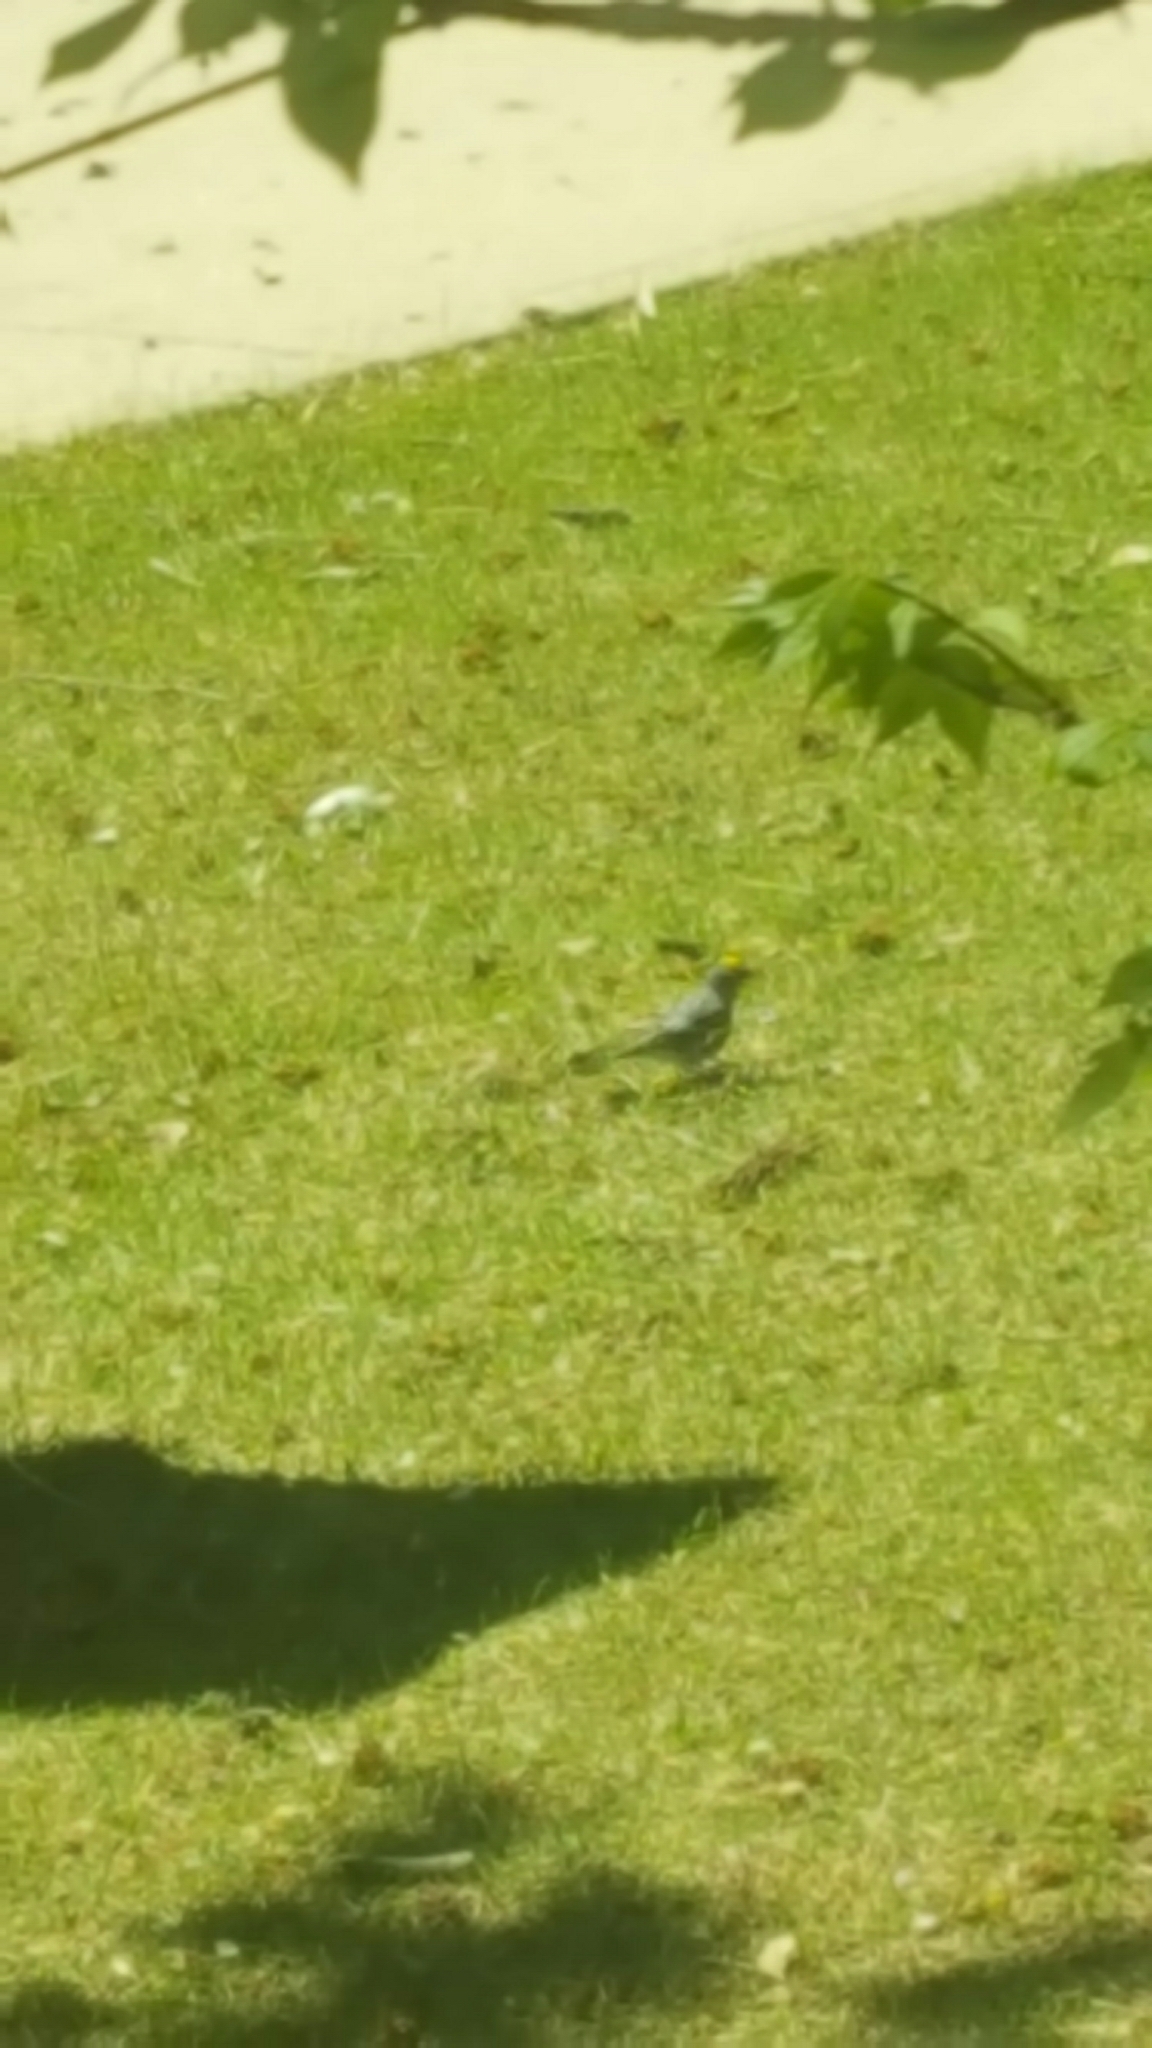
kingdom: Animalia
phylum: Chordata
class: Aves
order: Passeriformes
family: Parulidae
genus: Setophaga
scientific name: Setophaga auduboni
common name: Audubon's warbler
